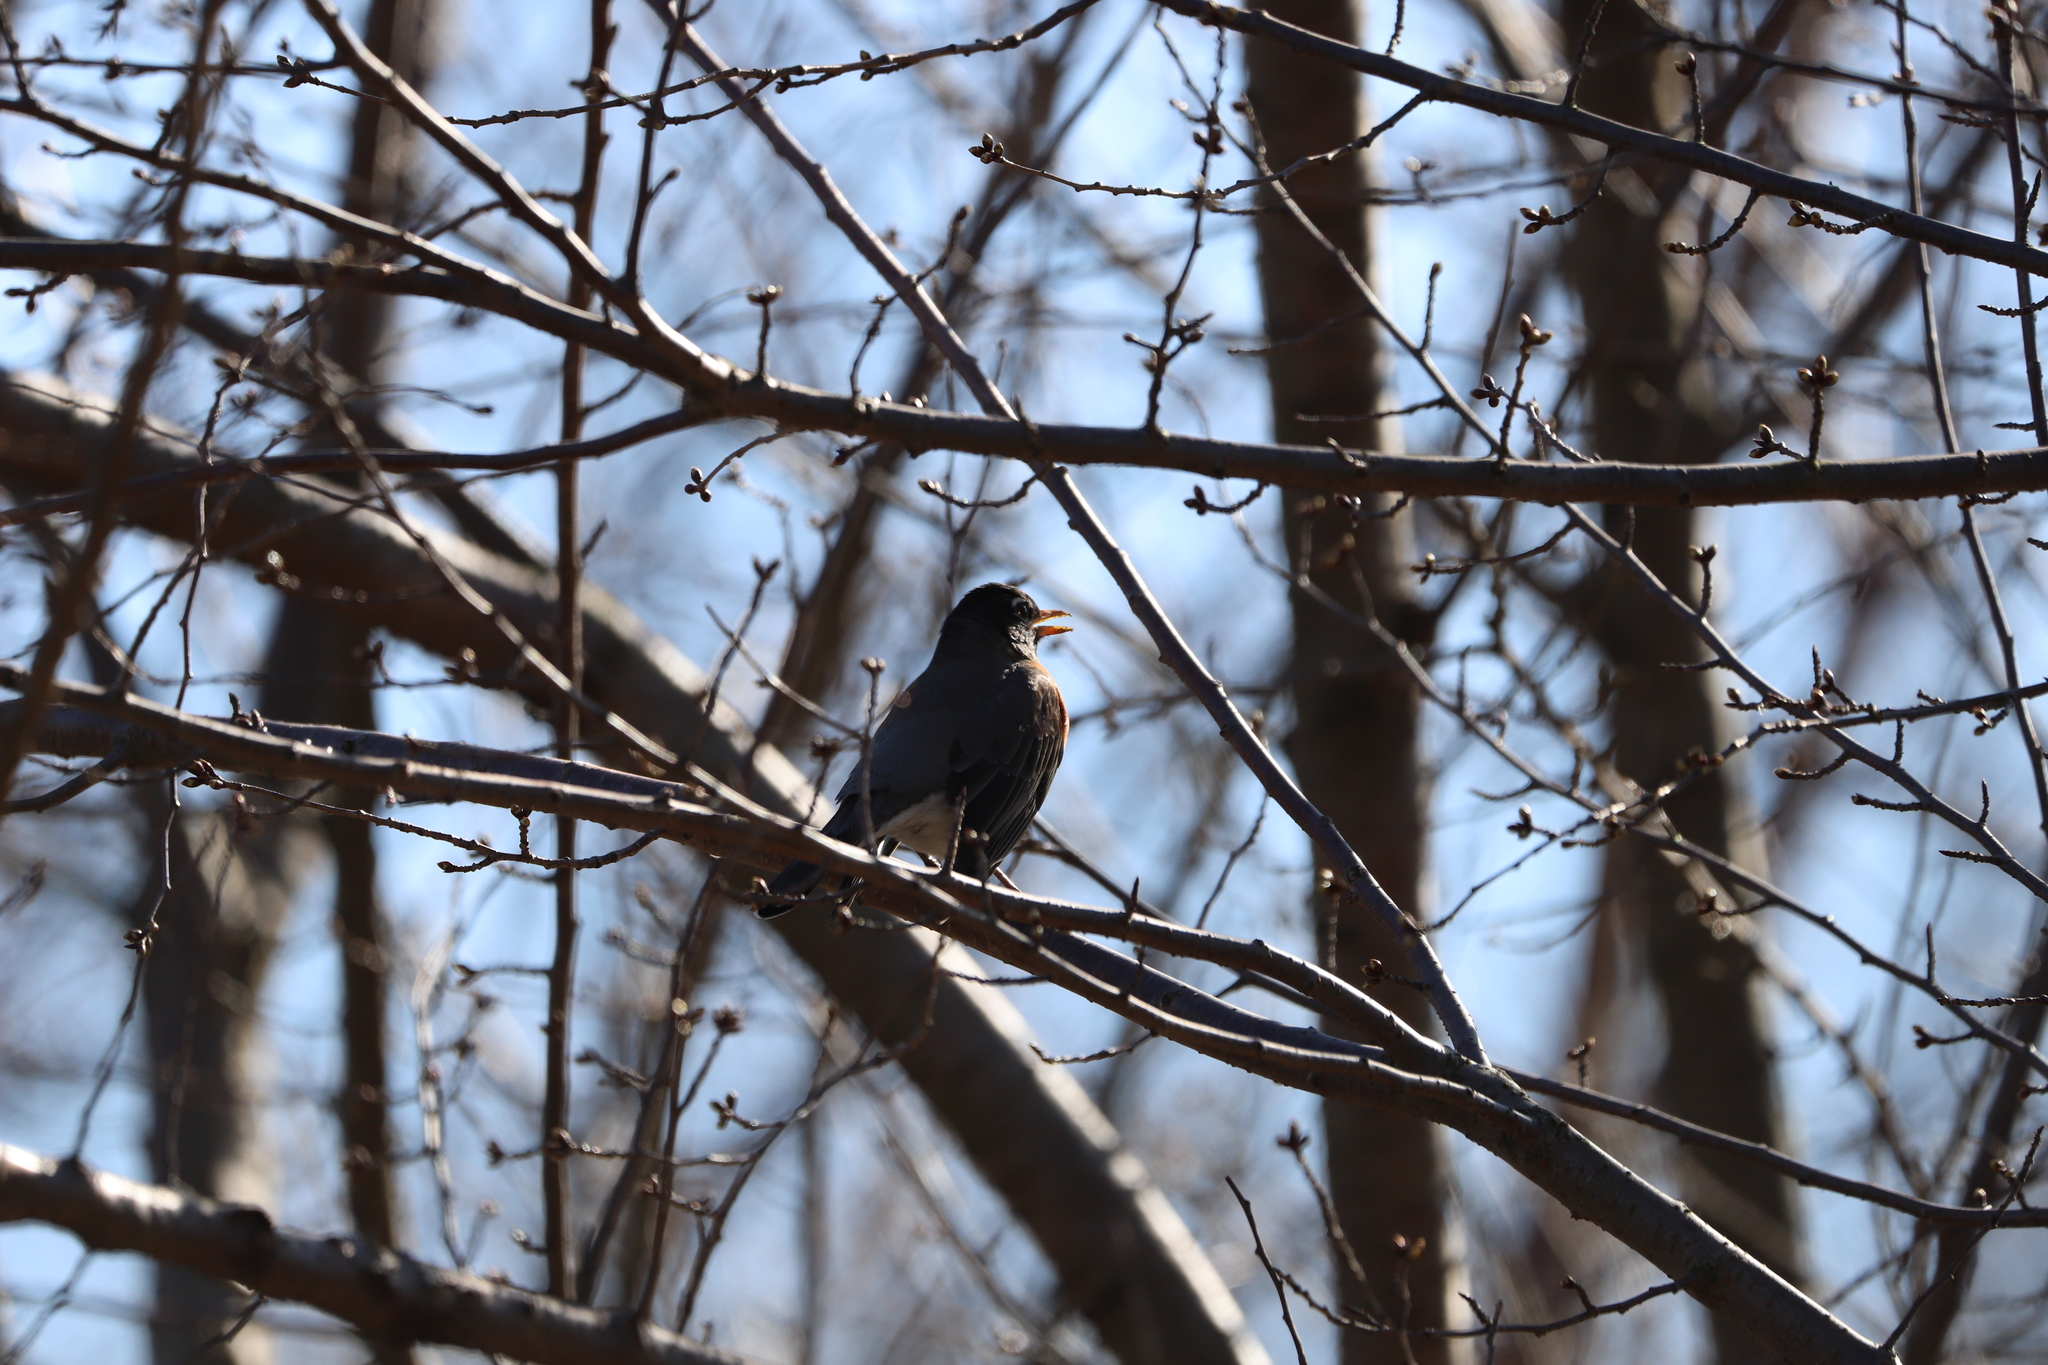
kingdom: Animalia
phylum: Chordata
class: Aves
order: Passeriformes
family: Turdidae
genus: Turdus
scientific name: Turdus migratorius
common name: American robin
